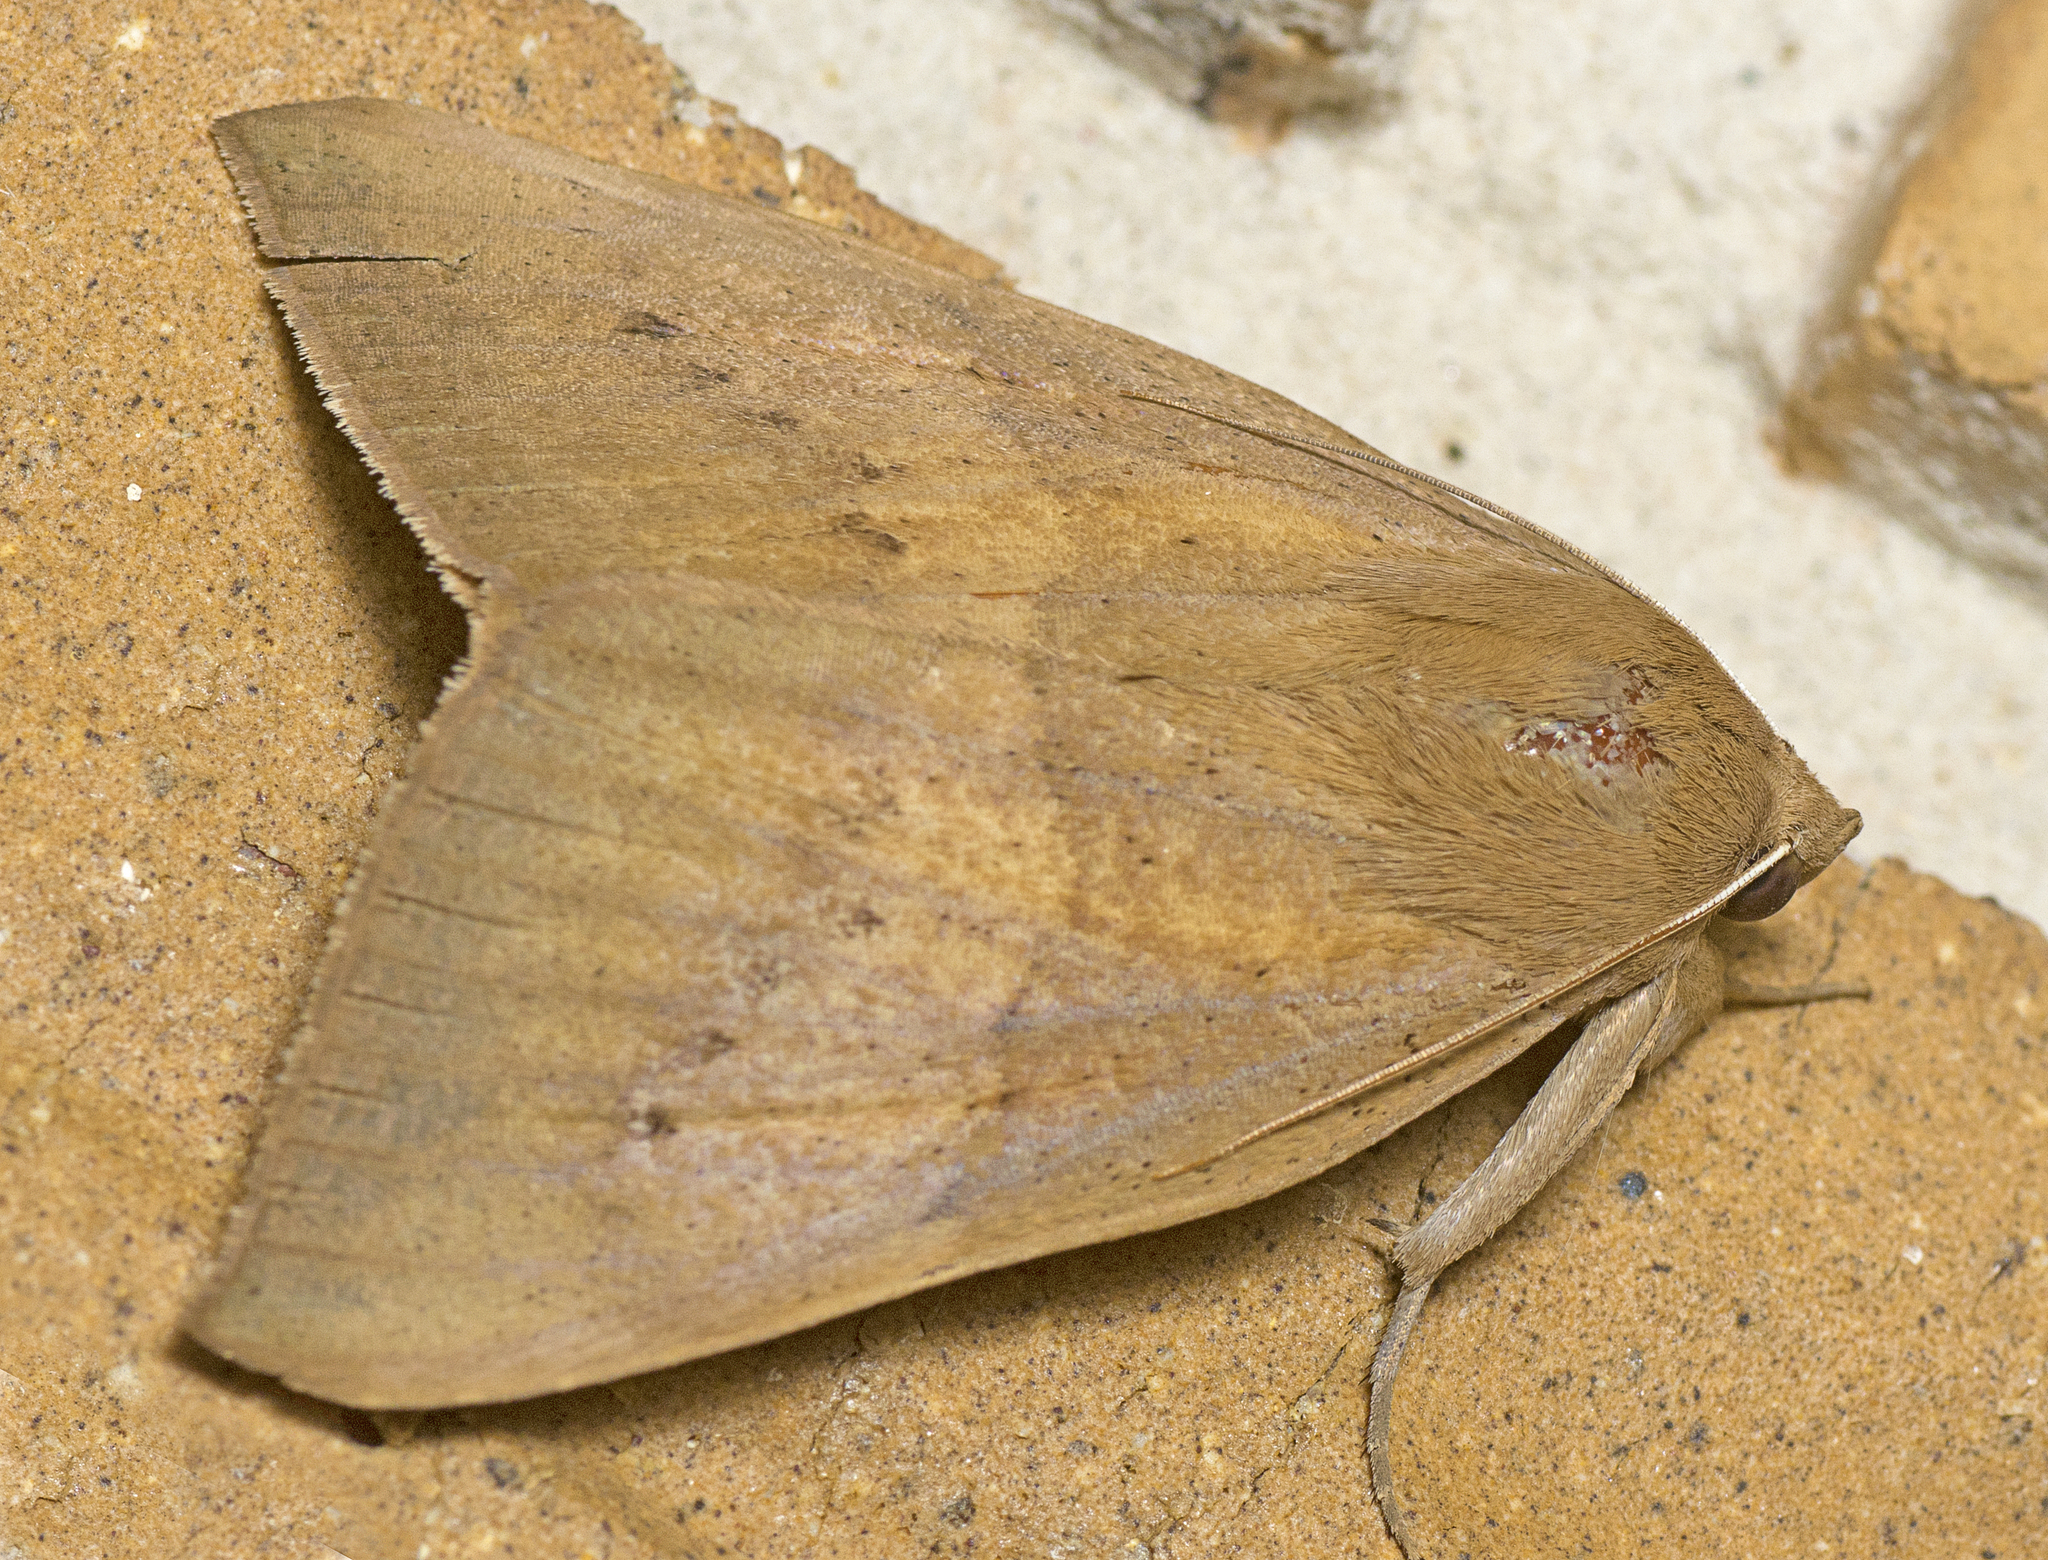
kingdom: Animalia
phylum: Arthropoda
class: Insecta
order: Lepidoptera
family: Erebidae
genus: Ophisma
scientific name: Ophisma gravata
